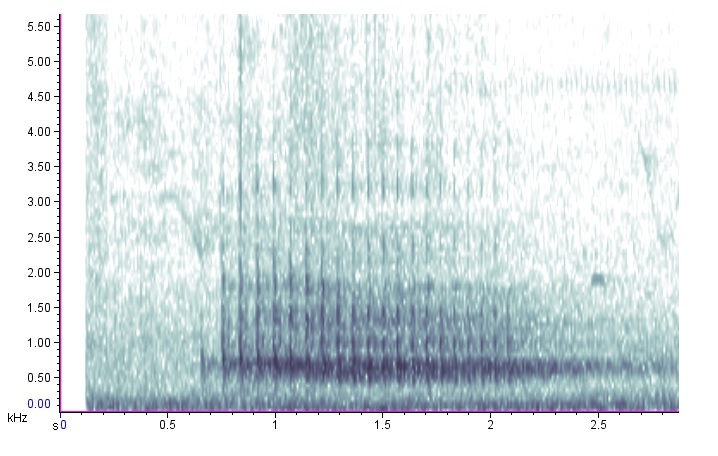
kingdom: Animalia
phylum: Chordata
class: Aves
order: Piciformes
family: Picidae
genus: Dryocopus
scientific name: Dryocopus pileatus
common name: Pileated woodpecker
